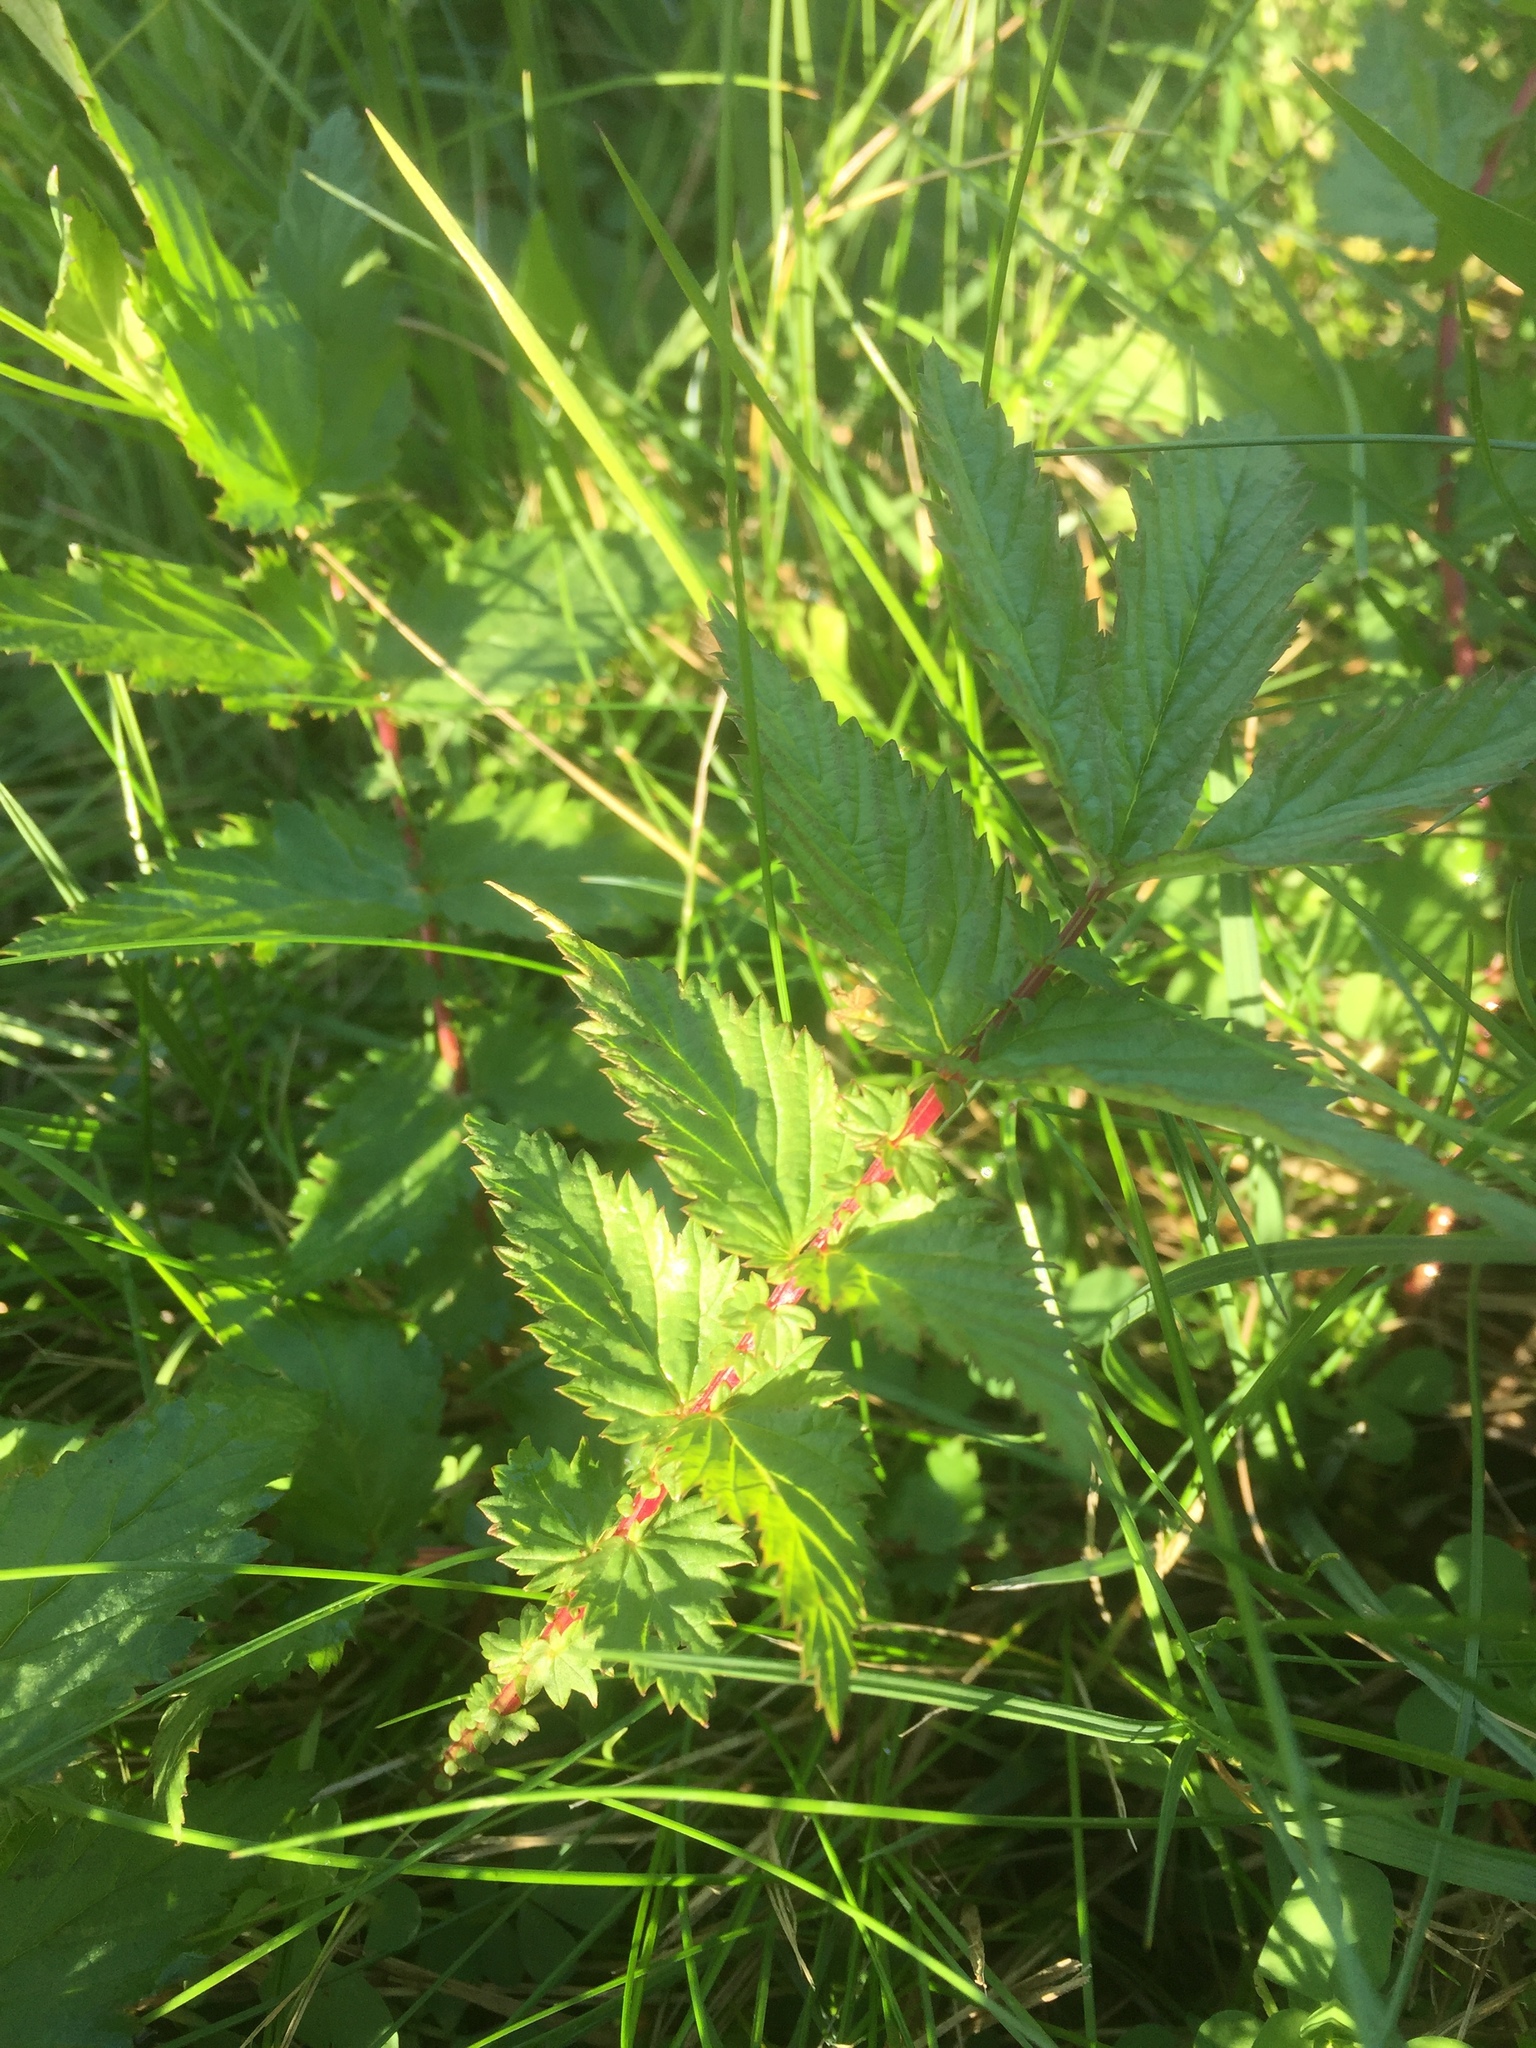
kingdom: Plantae
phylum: Tracheophyta
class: Magnoliopsida
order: Rosales
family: Rosaceae
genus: Filipendula
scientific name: Filipendula ulmaria
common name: Meadowsweet
